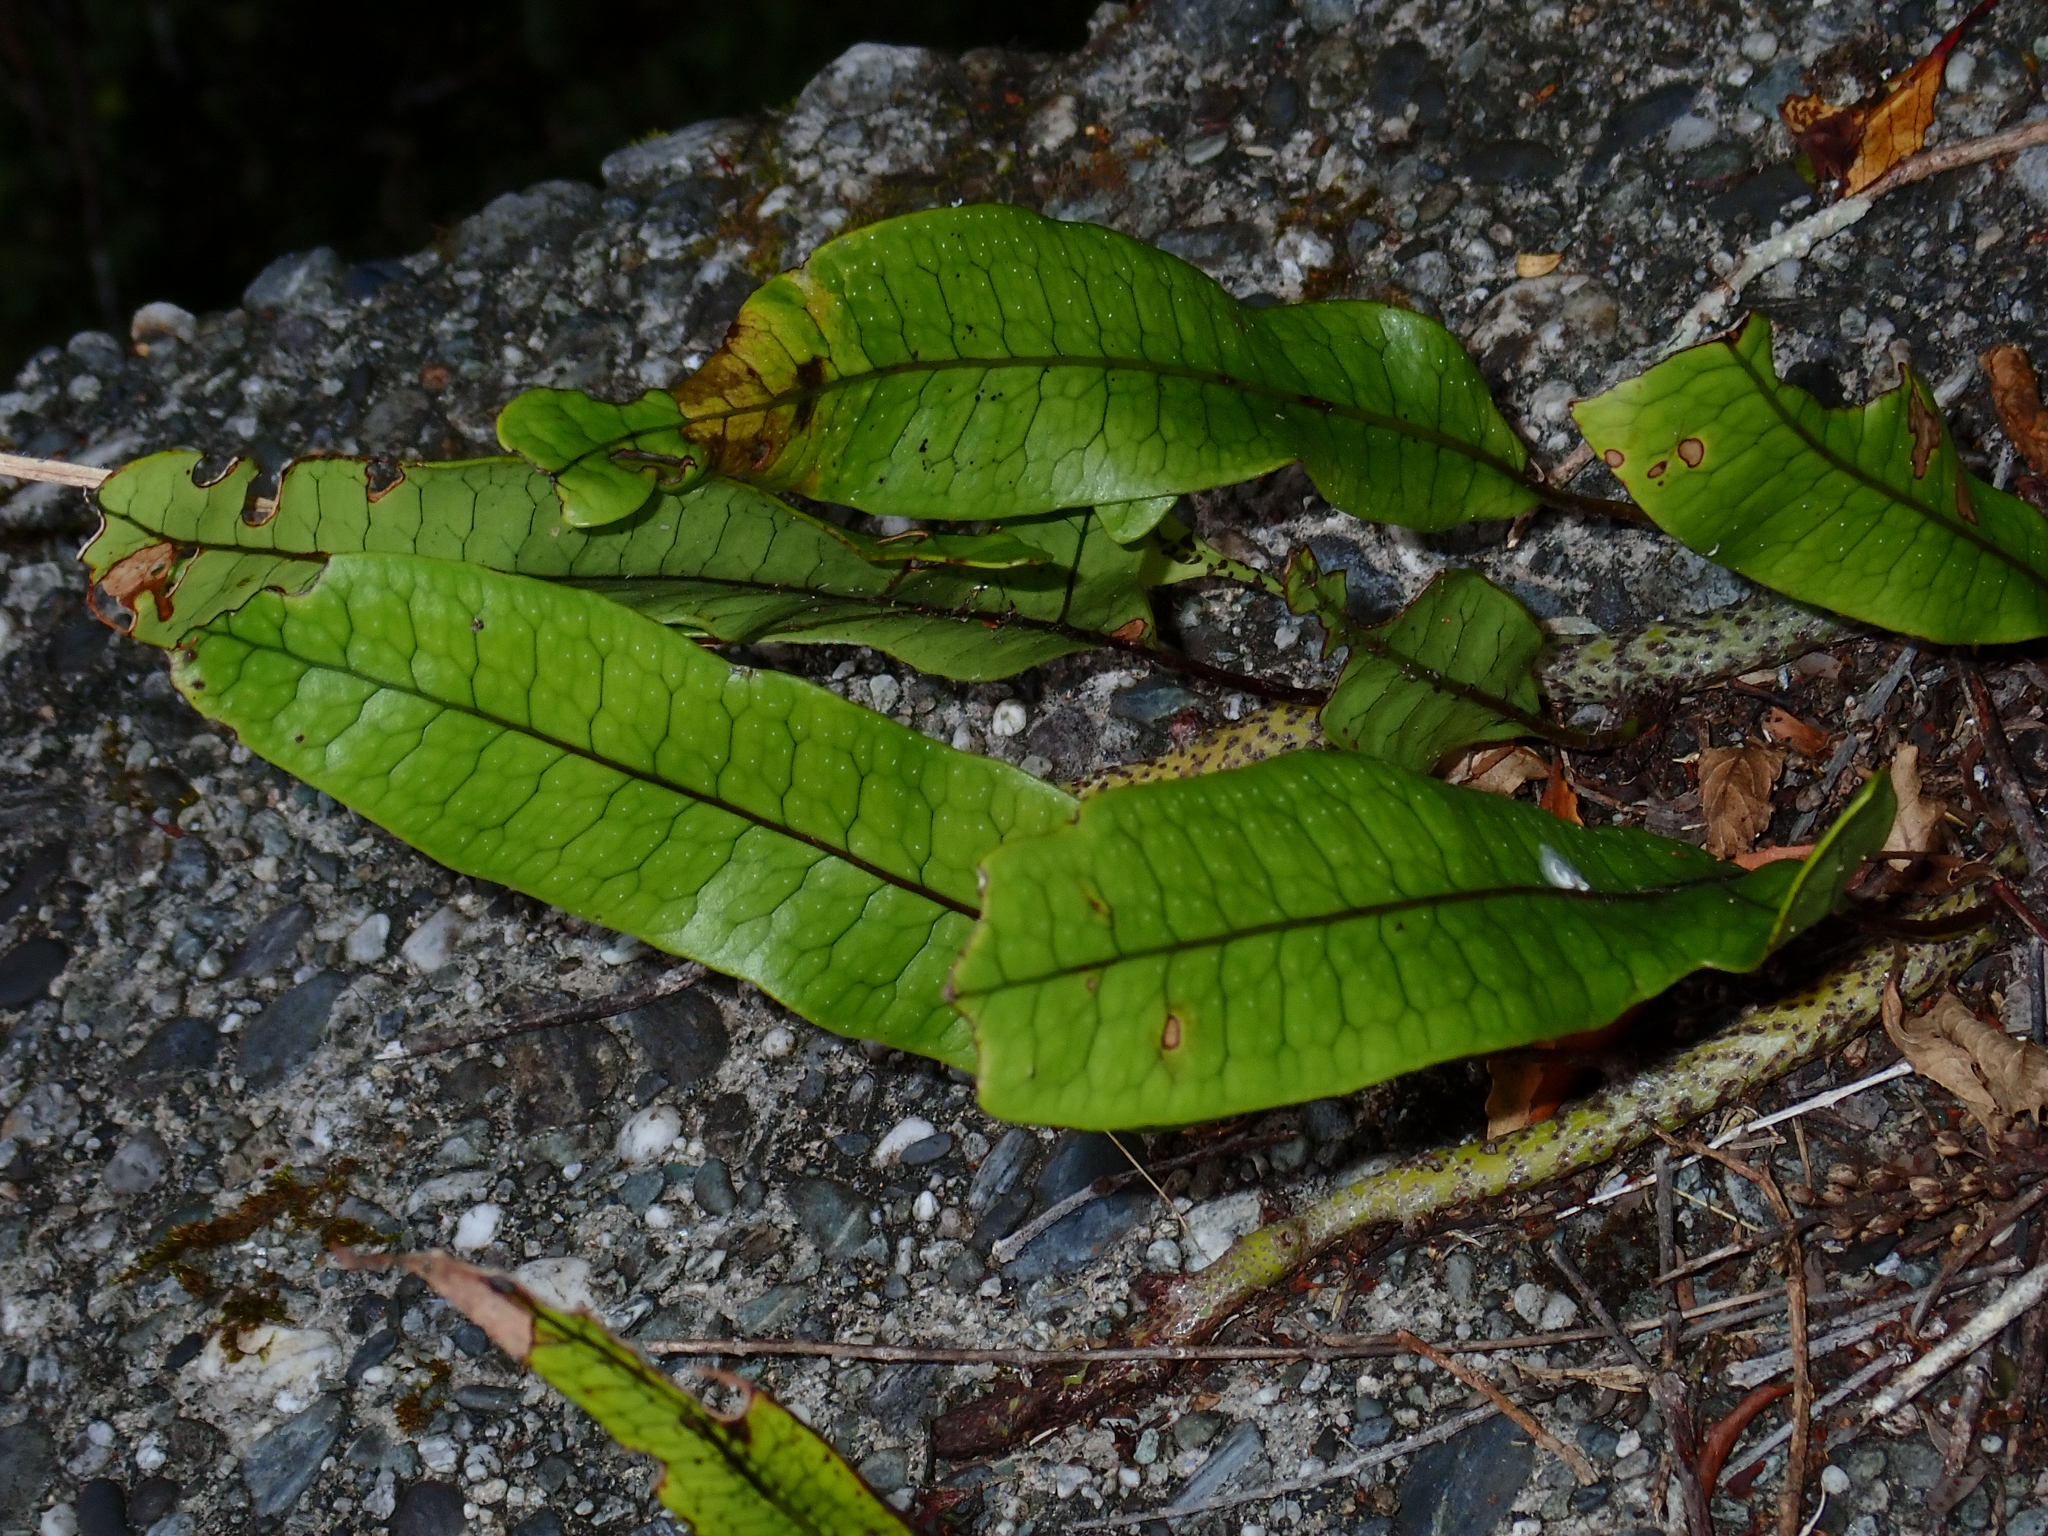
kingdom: Plantae
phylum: Tracheophyta
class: Polypodiopsida
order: Polypodiales
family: Polypodiaceae
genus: Lecanopteris
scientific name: Lecanopteris pustulata
